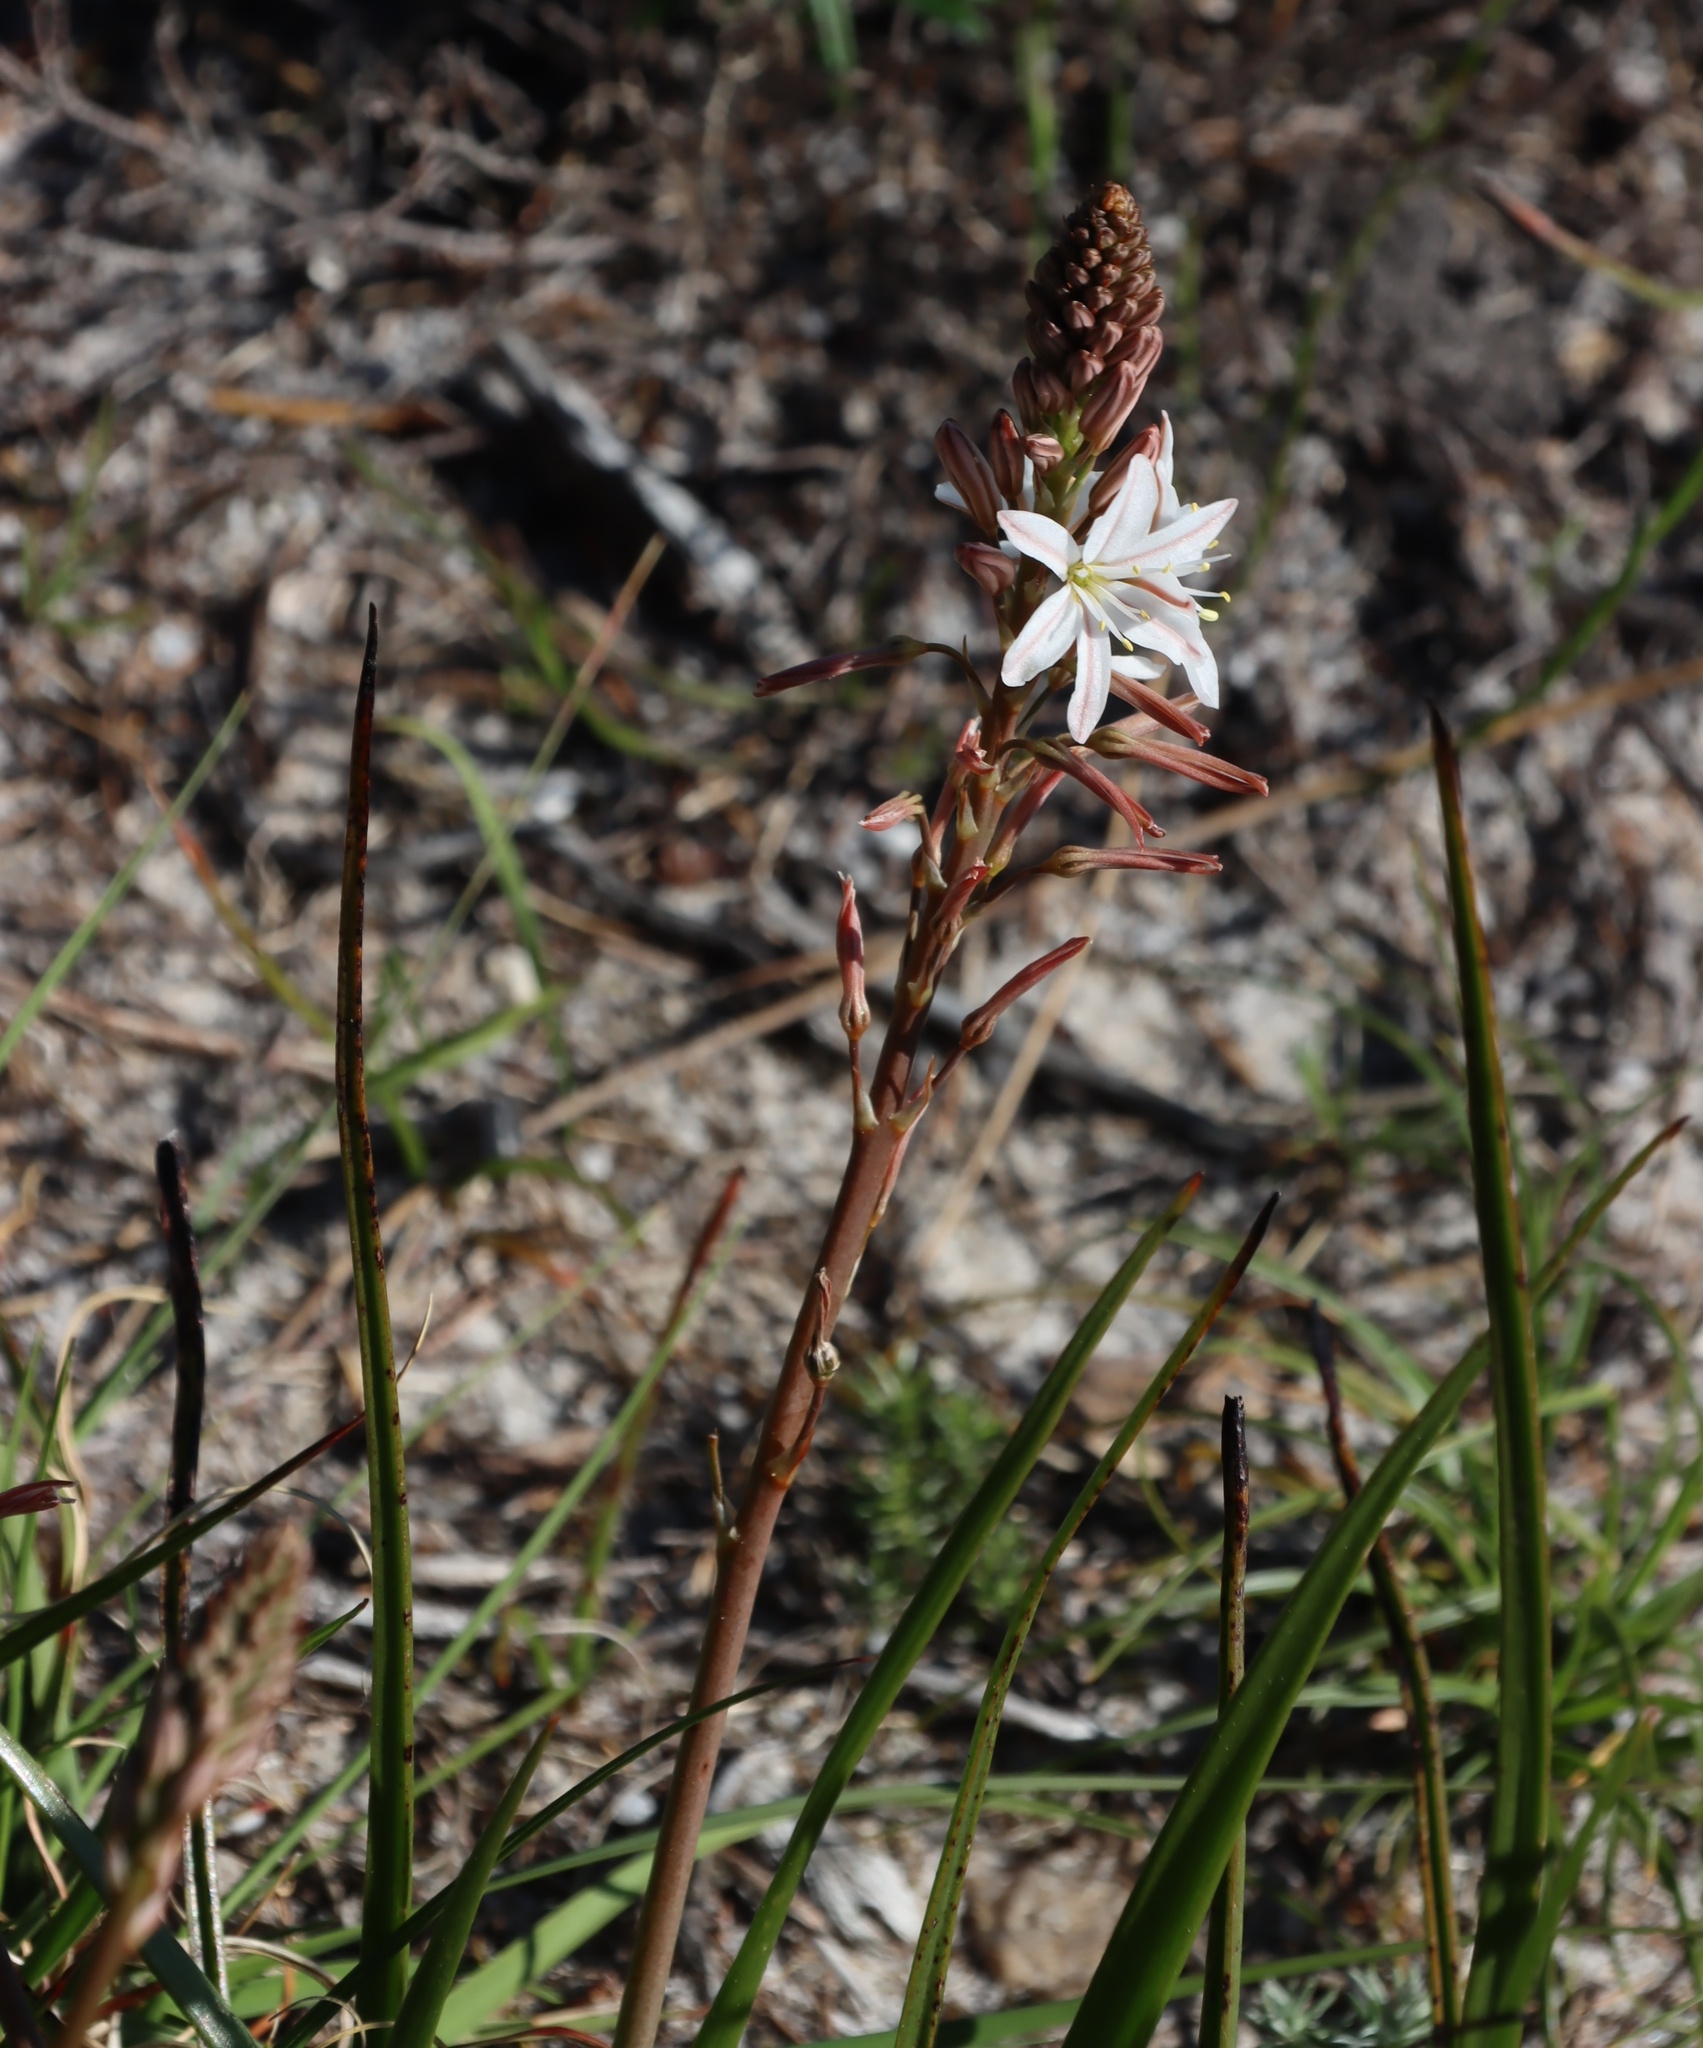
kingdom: Plantae
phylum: Tracheophyta
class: Liliopsida
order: Asparagales
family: Asparagaceae
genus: Drimia
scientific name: Drimia exuviata
